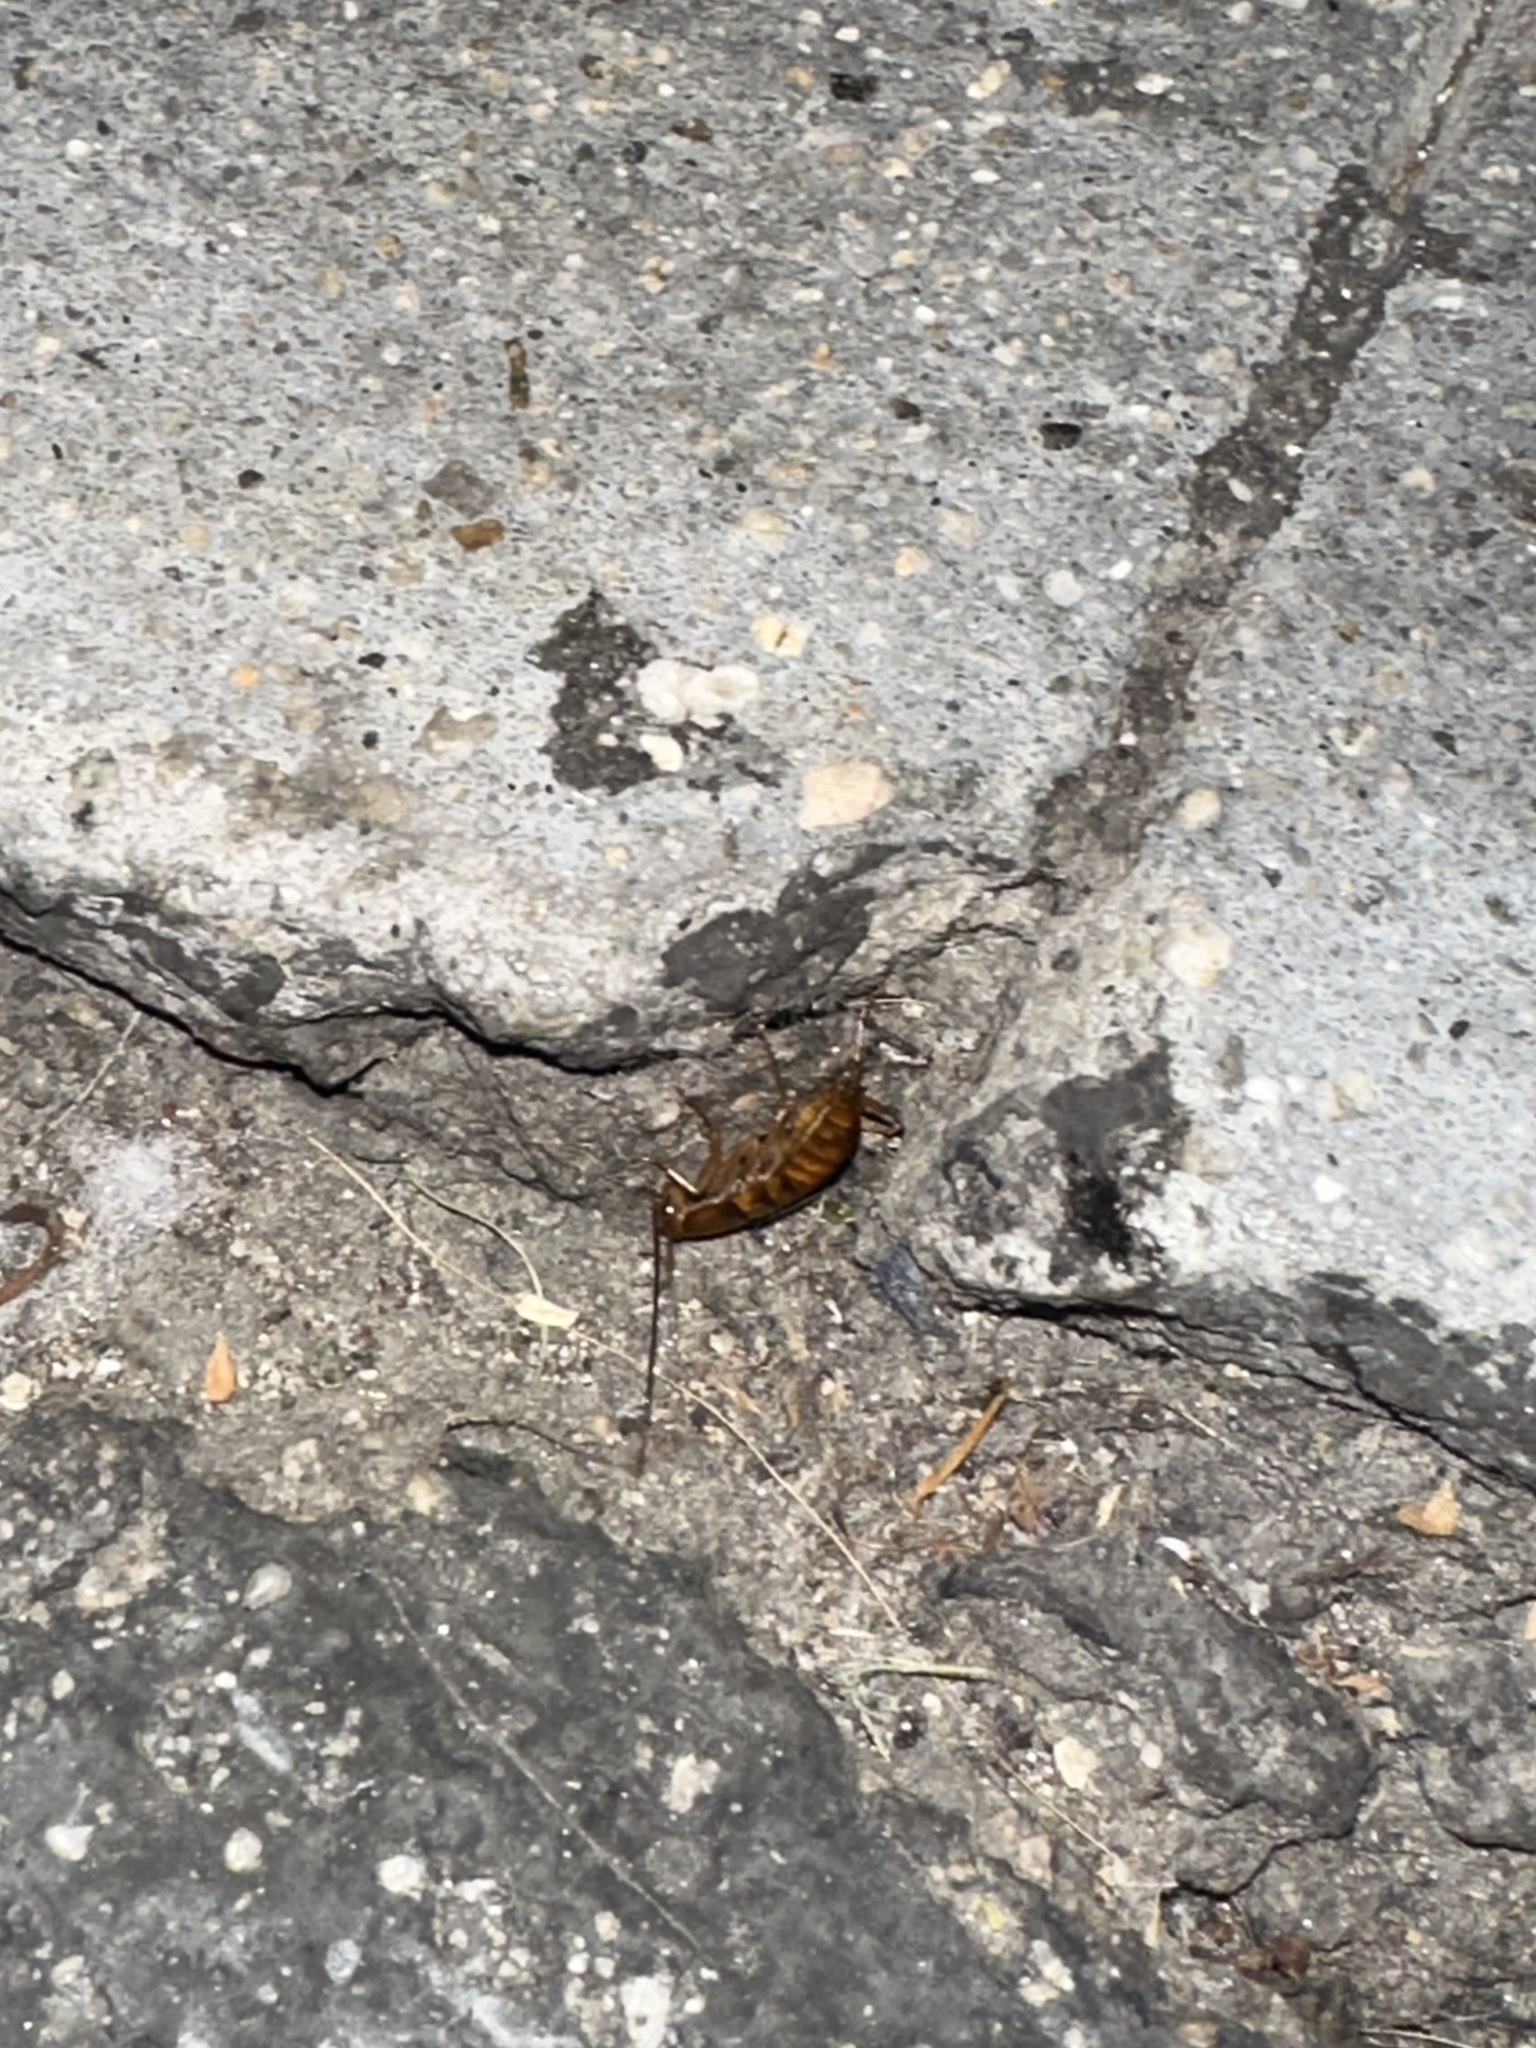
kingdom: Animalia
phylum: Arthropoda
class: Insecta
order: Blattodea
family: Blattidae
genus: Periplaneta
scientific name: Periplaneta americana
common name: American cockroach
